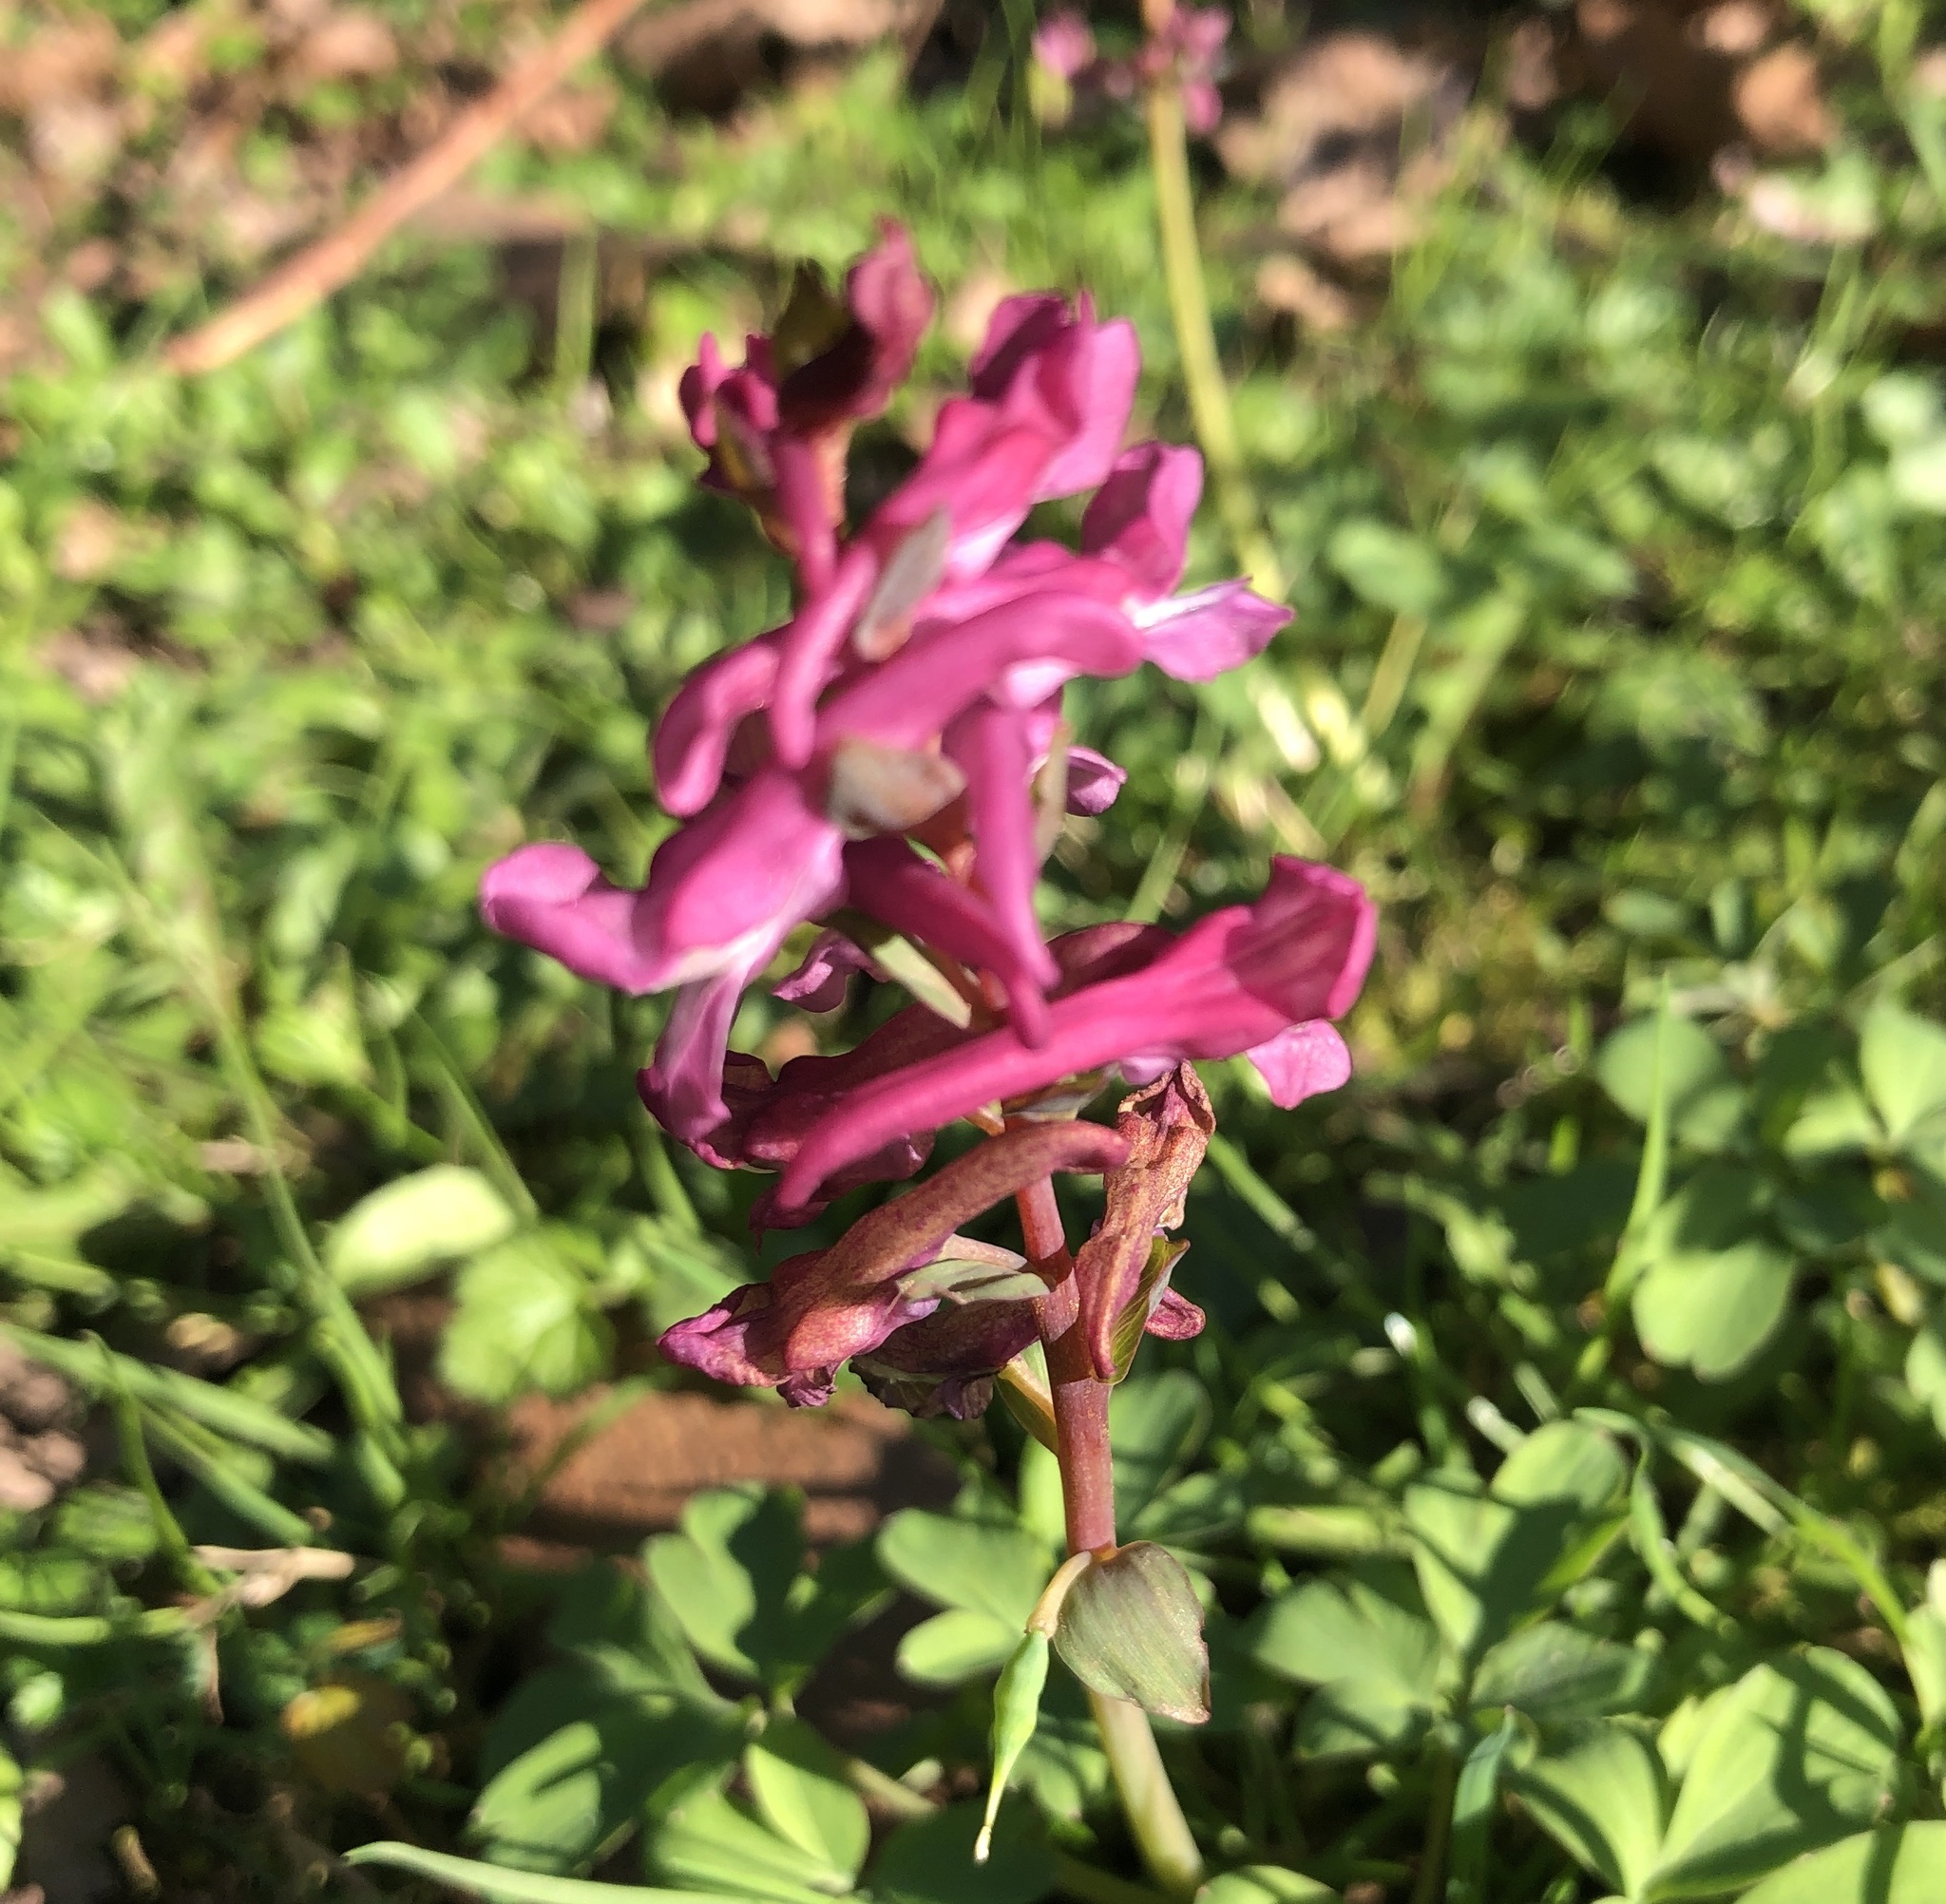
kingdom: Plantae
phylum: Tracheophyta
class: Magnoliopsida
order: Ranunculales
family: Papaveraceae
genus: Corydalis
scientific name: Corydalis cava
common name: Hollowroot
